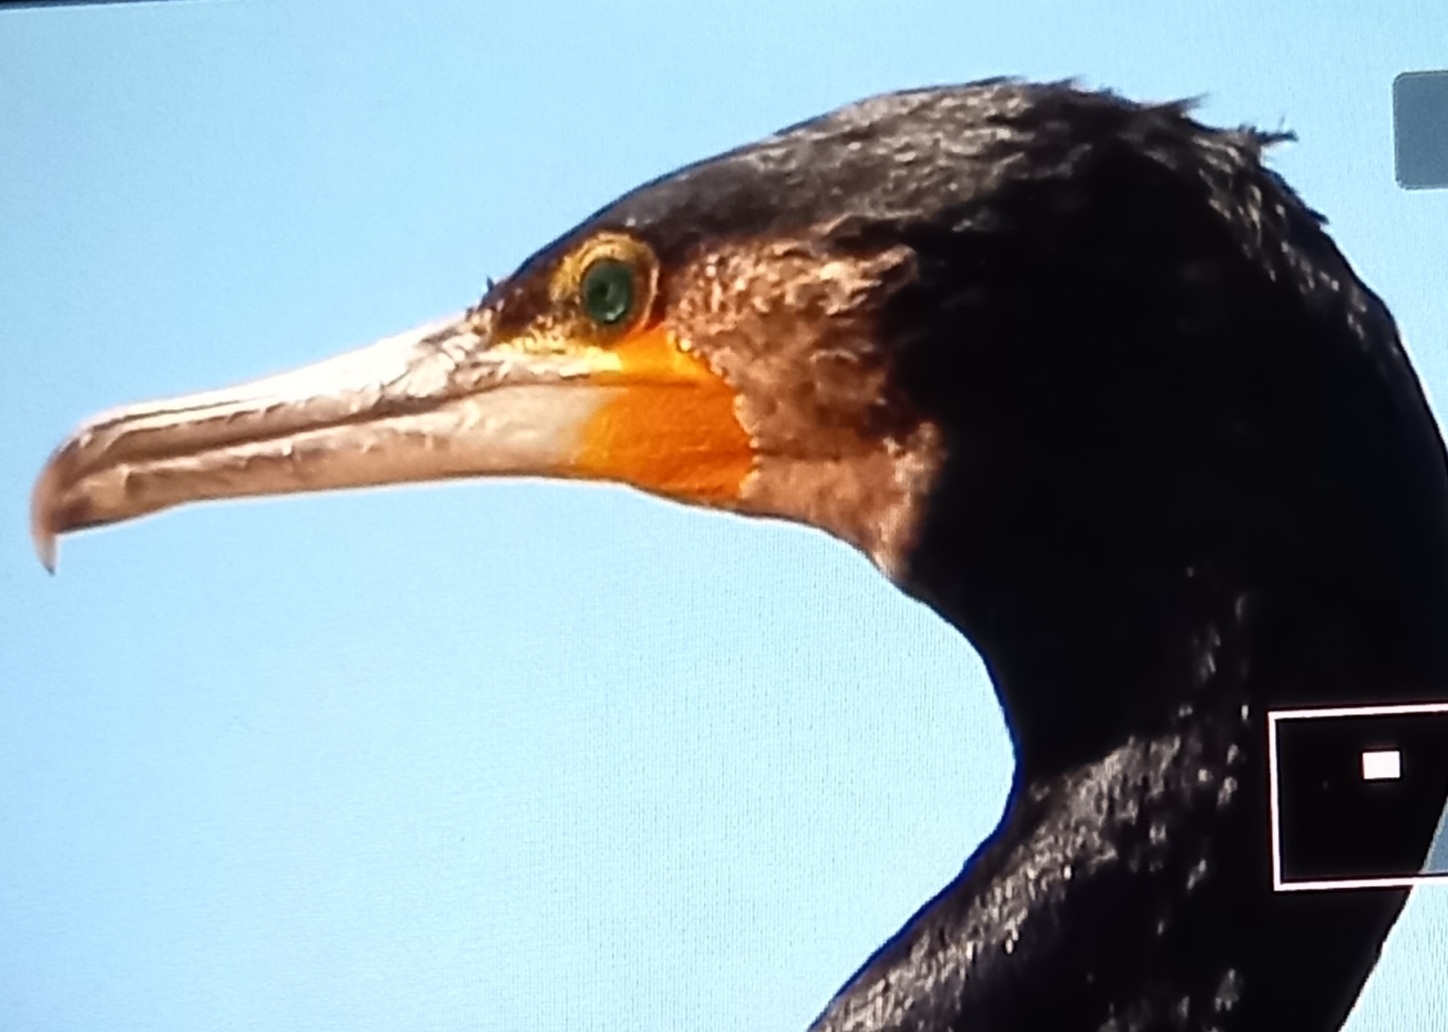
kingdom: Animalia
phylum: Chordata
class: Aves
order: Suliformes
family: Phalacrocoracidae
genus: Phalacrocorax
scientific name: Phalacrocorax carbo
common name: Great cormorant
